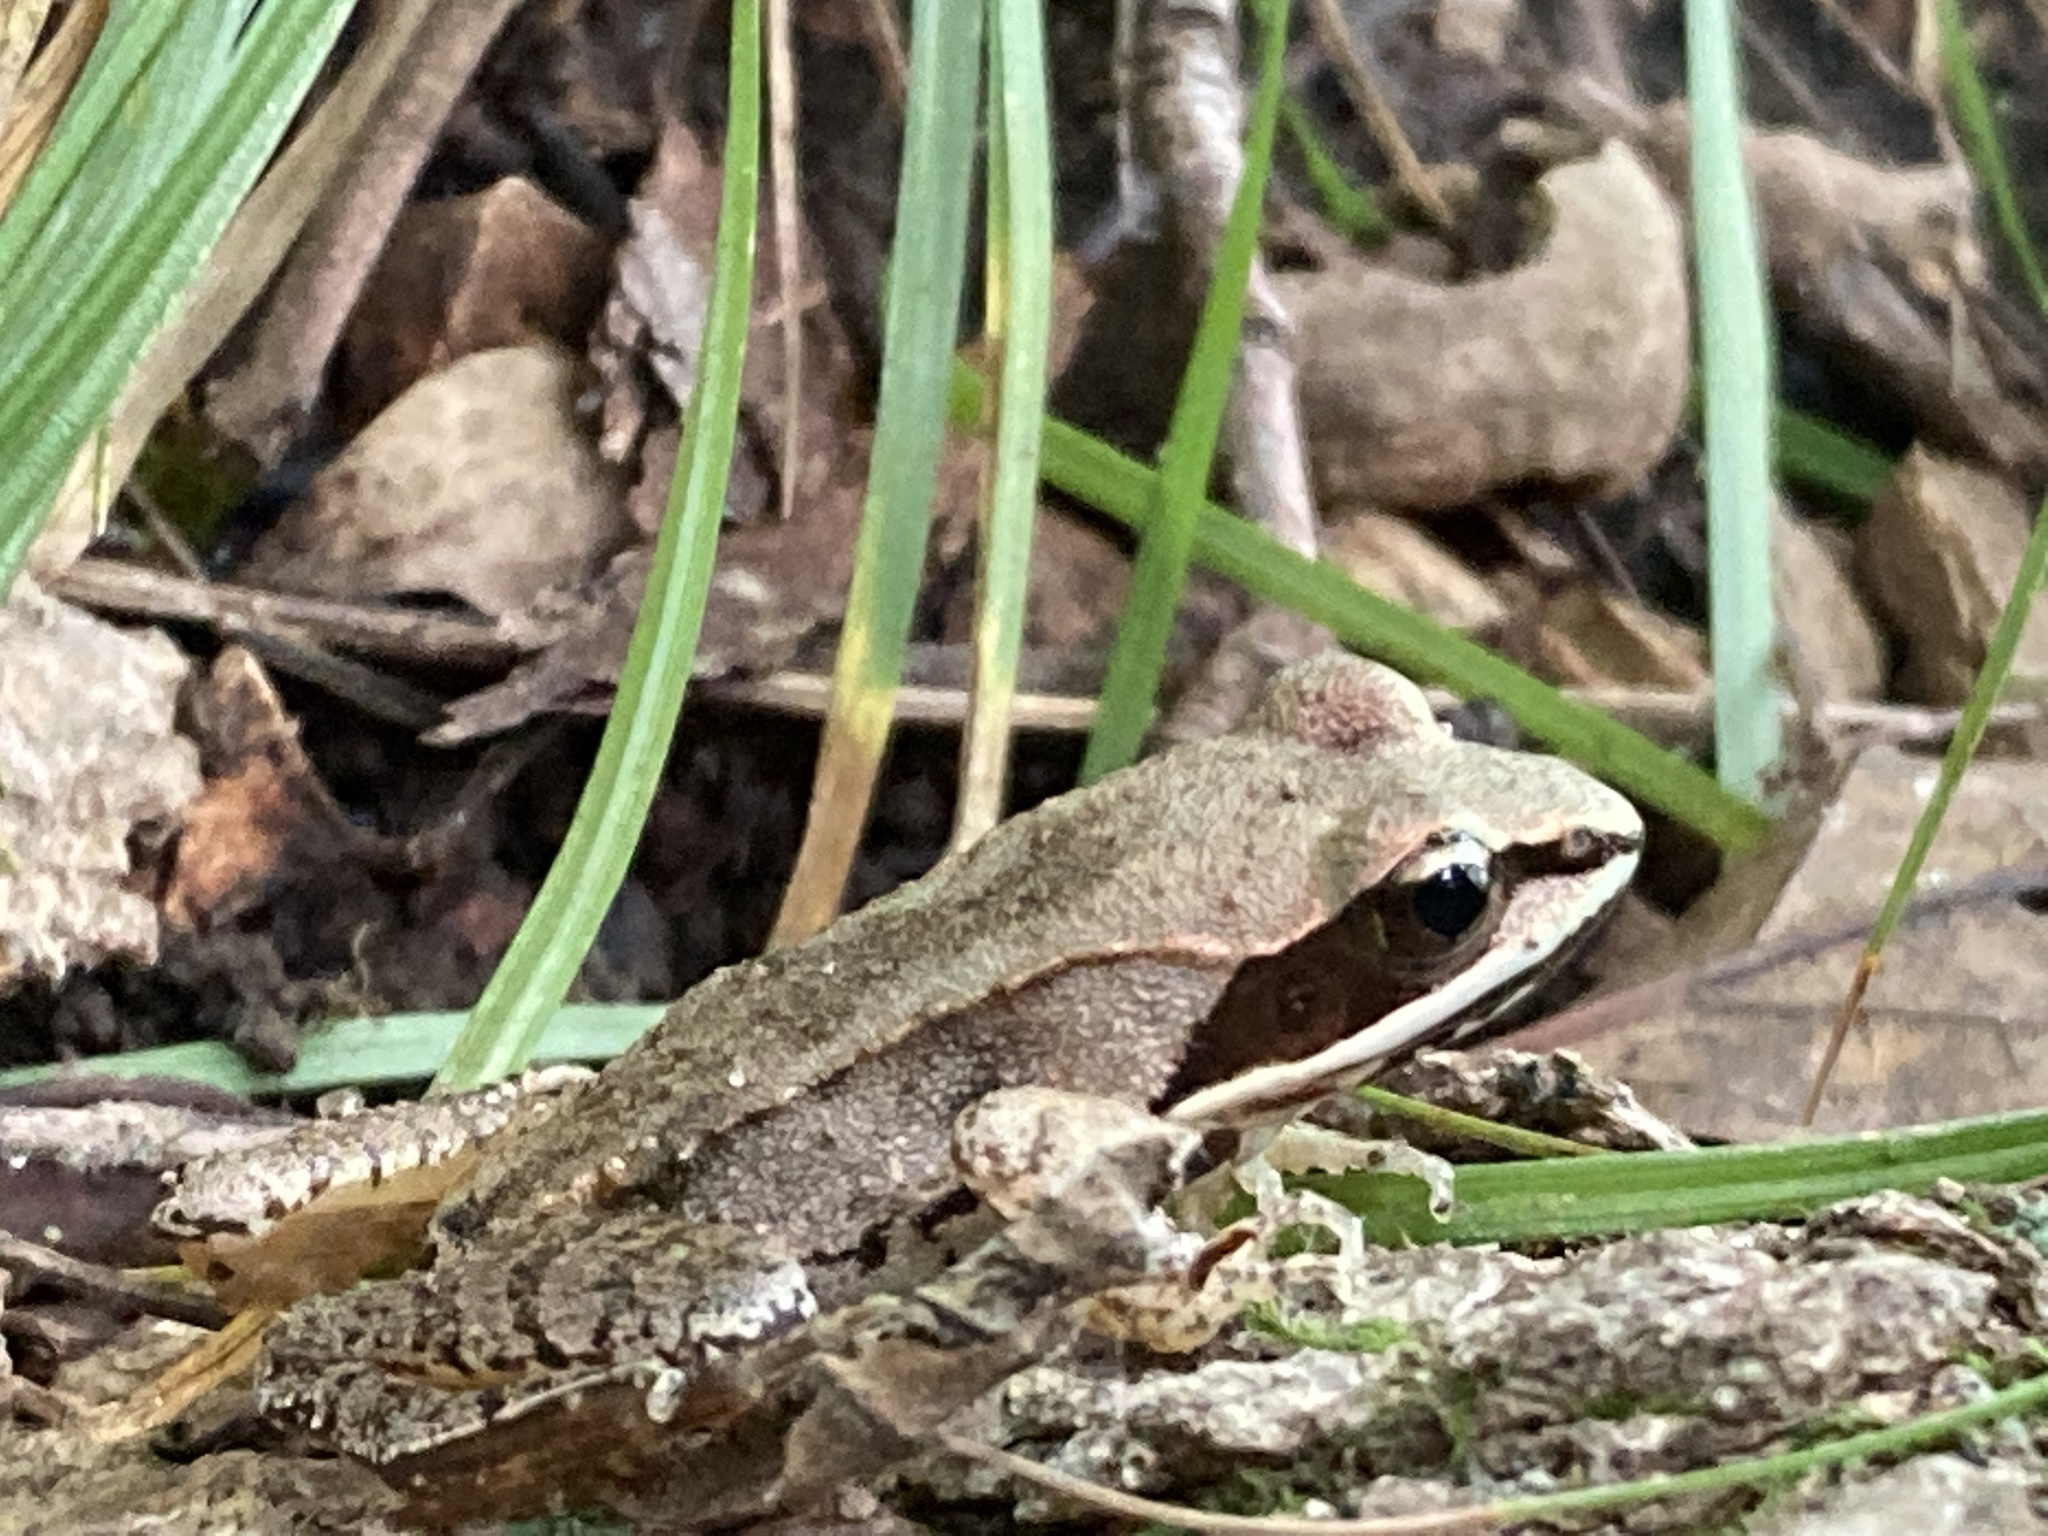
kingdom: Animalia
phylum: Chordata
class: Amphibia
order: Anura
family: Ranidae
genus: Lithobates
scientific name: Lithobates sylvaticus
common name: Wood frog
